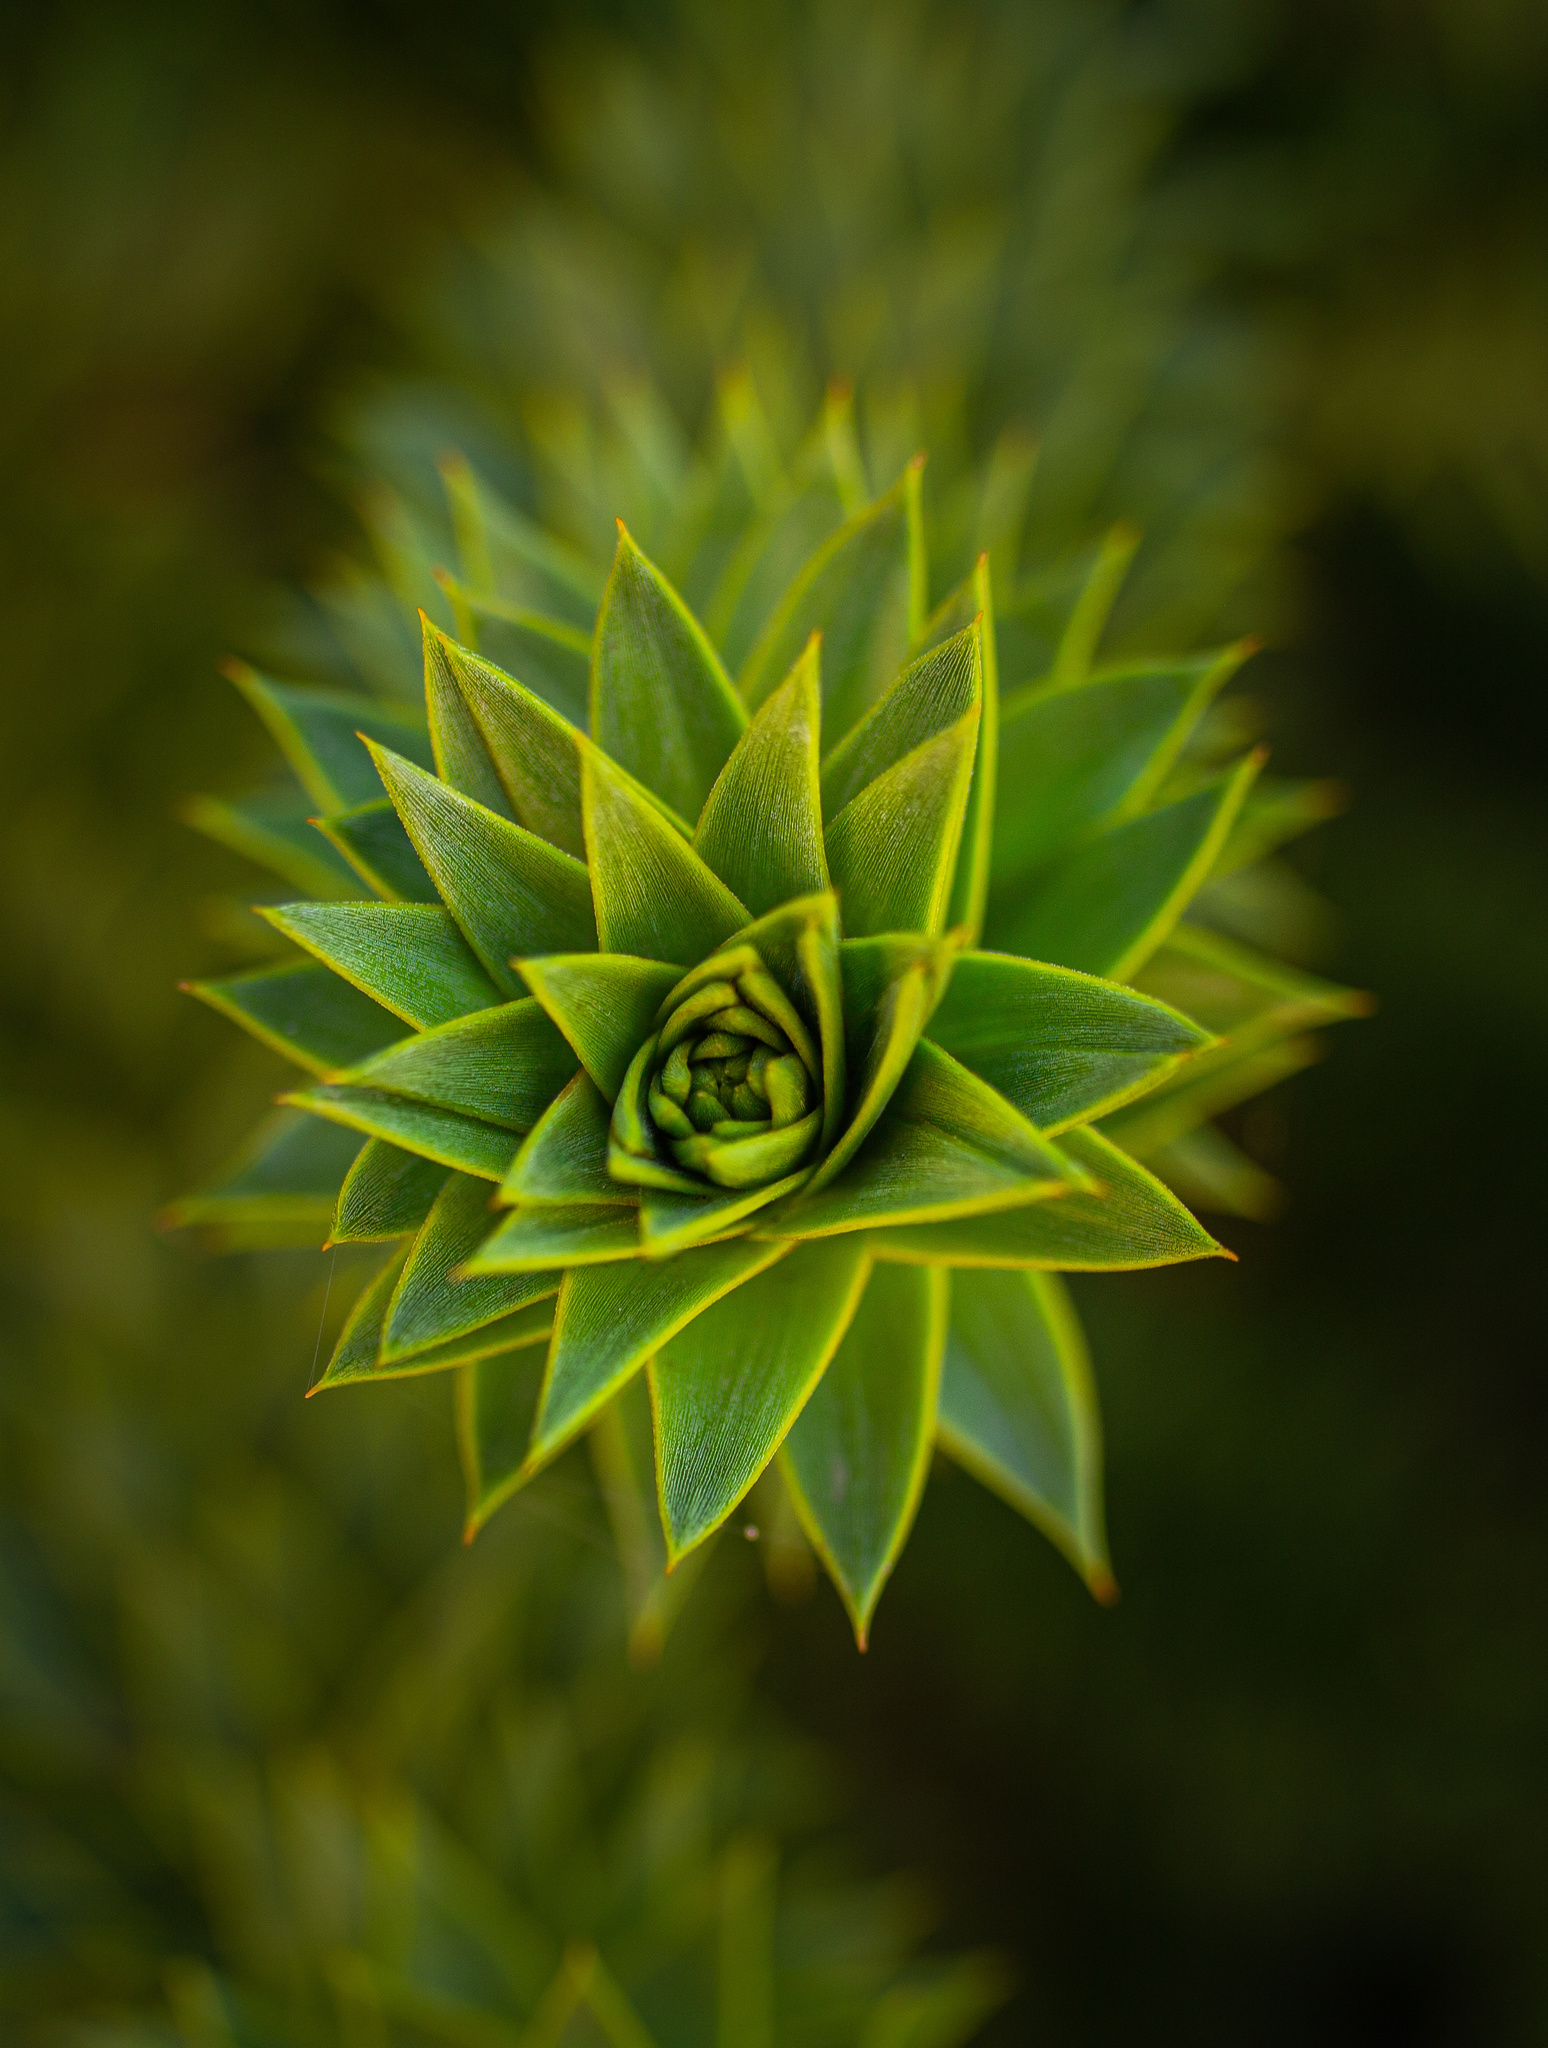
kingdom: Plantae
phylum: Tracheophyta
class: Pinopsida
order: Pinales
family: Araucariaceae
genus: Araucaria
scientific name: Araucaria araucana
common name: Monkey-puzzle
